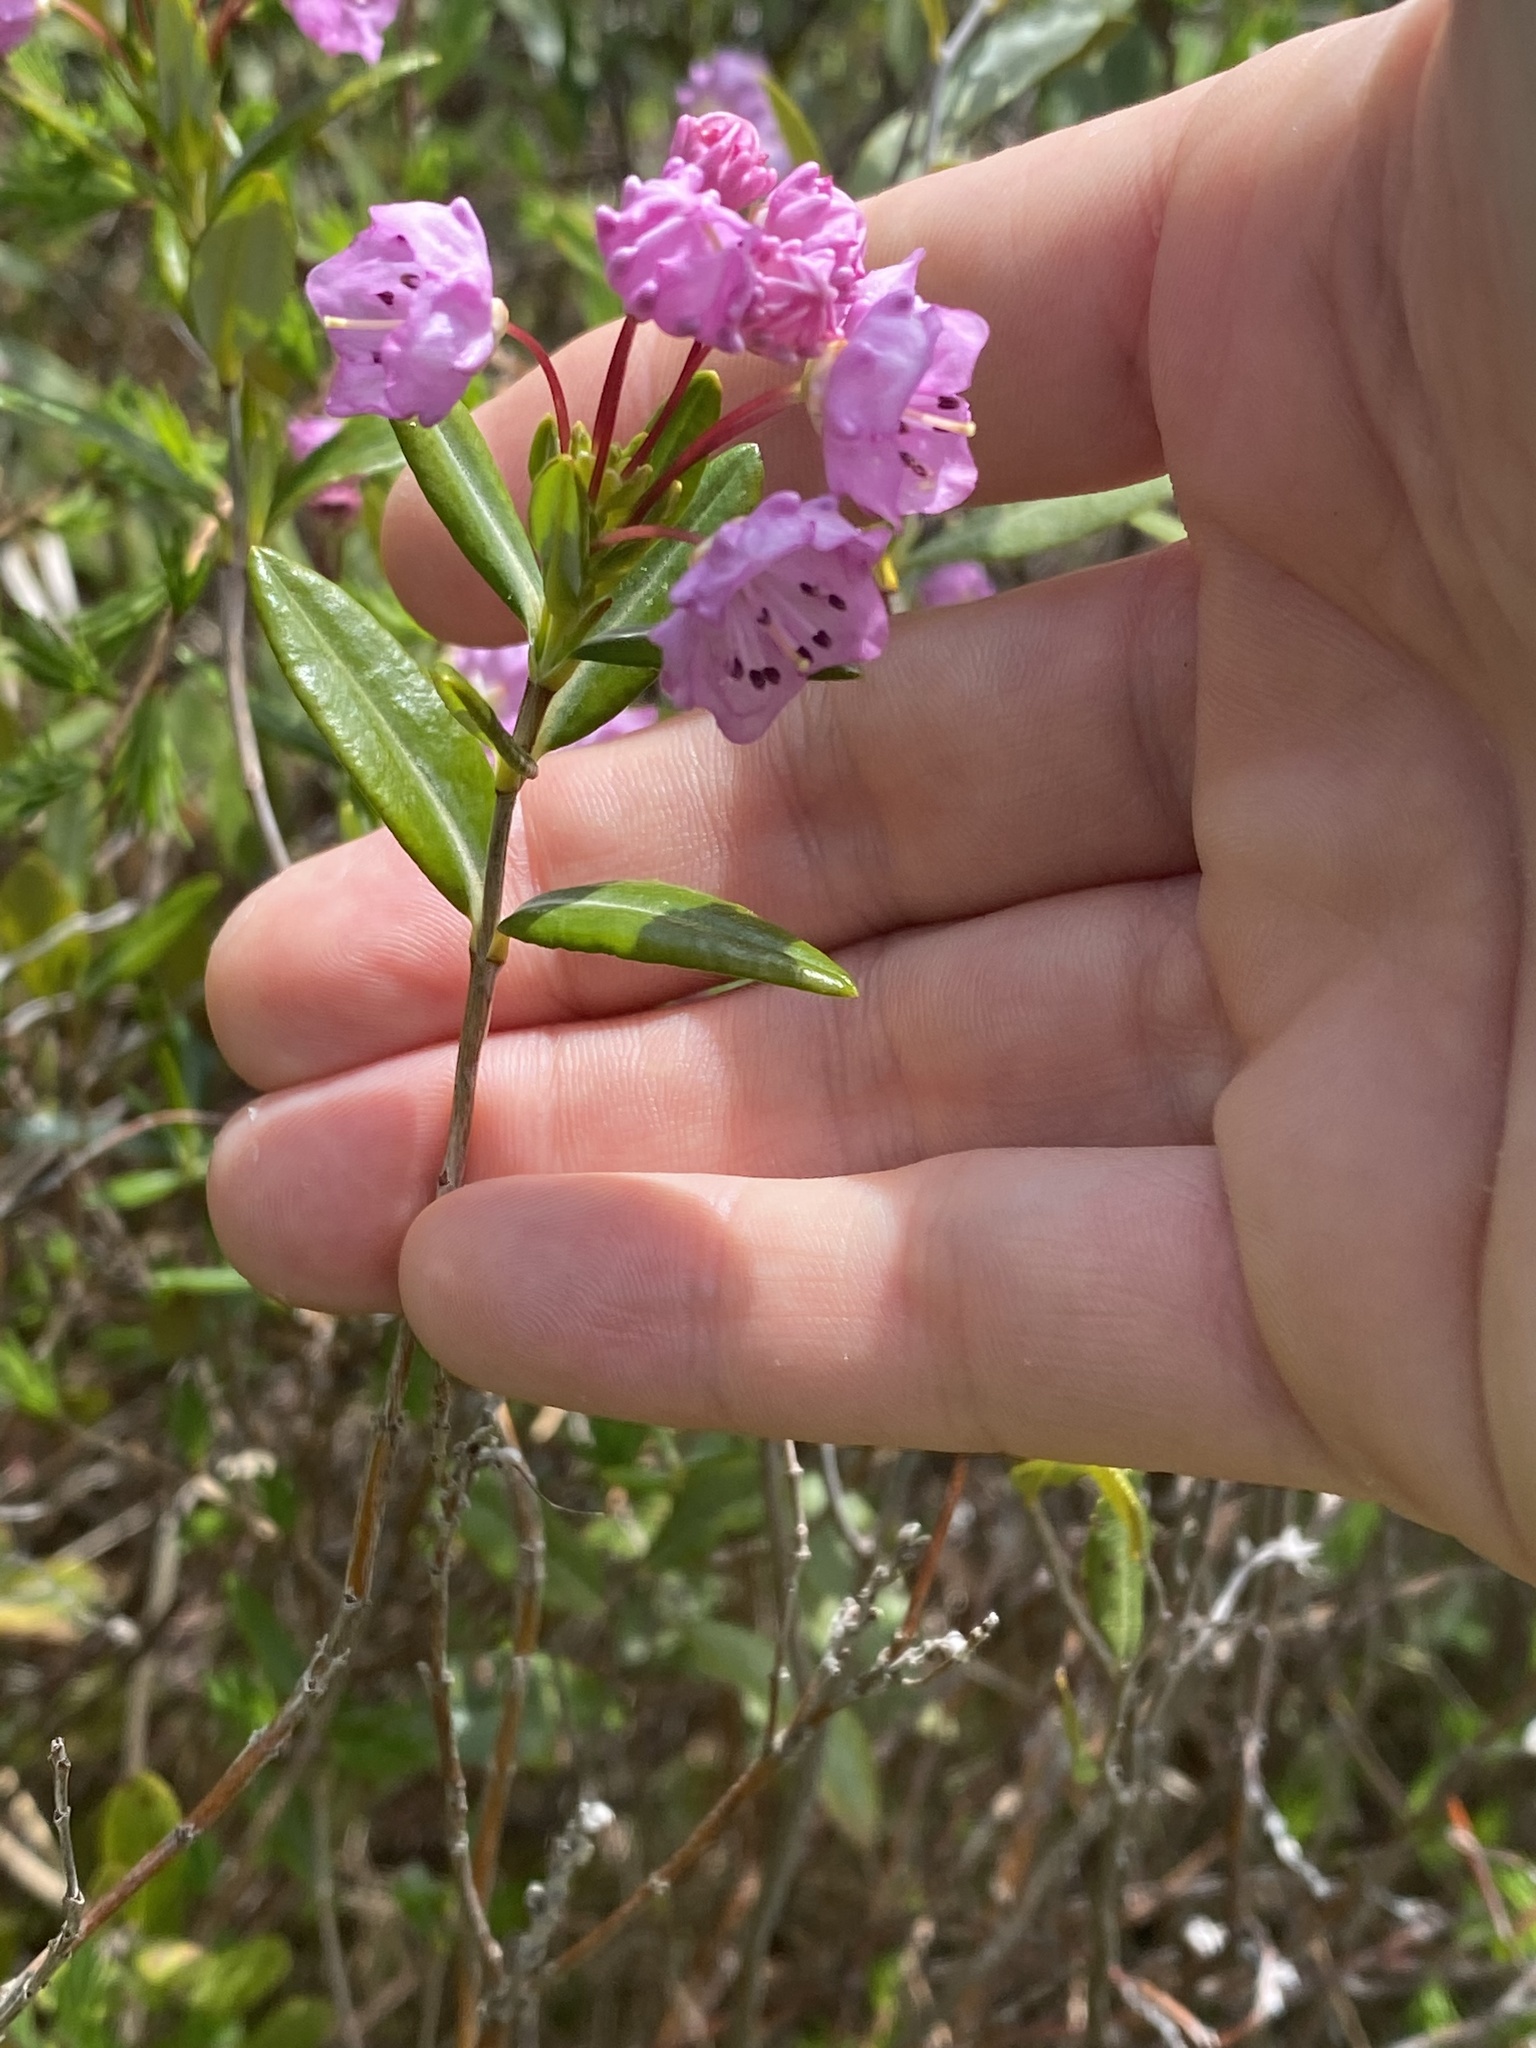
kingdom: Plantae
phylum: Tracheophyta
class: Magnoliopsida
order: Ericales
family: Ericaceae
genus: Kalmia
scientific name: Kalmia polifolia
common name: Bog-laurel
